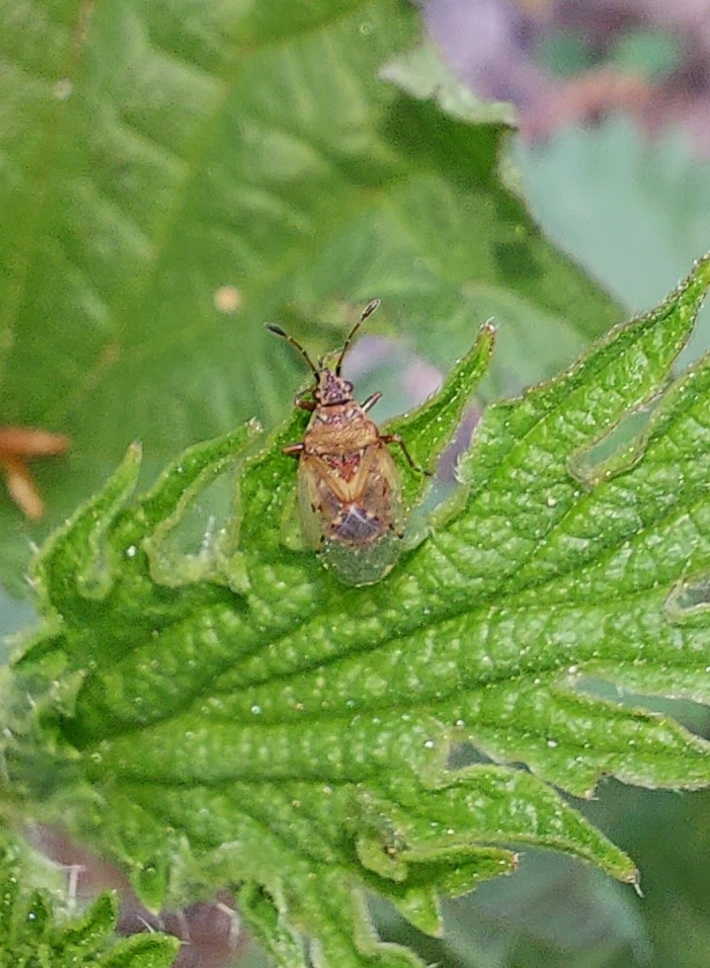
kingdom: Animalia
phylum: Arthropoda
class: Insecta
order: Hemiptera
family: Lygaeidae
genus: Kleidocerys
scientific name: Kleidocerys resedae
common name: Birch catkin bug
